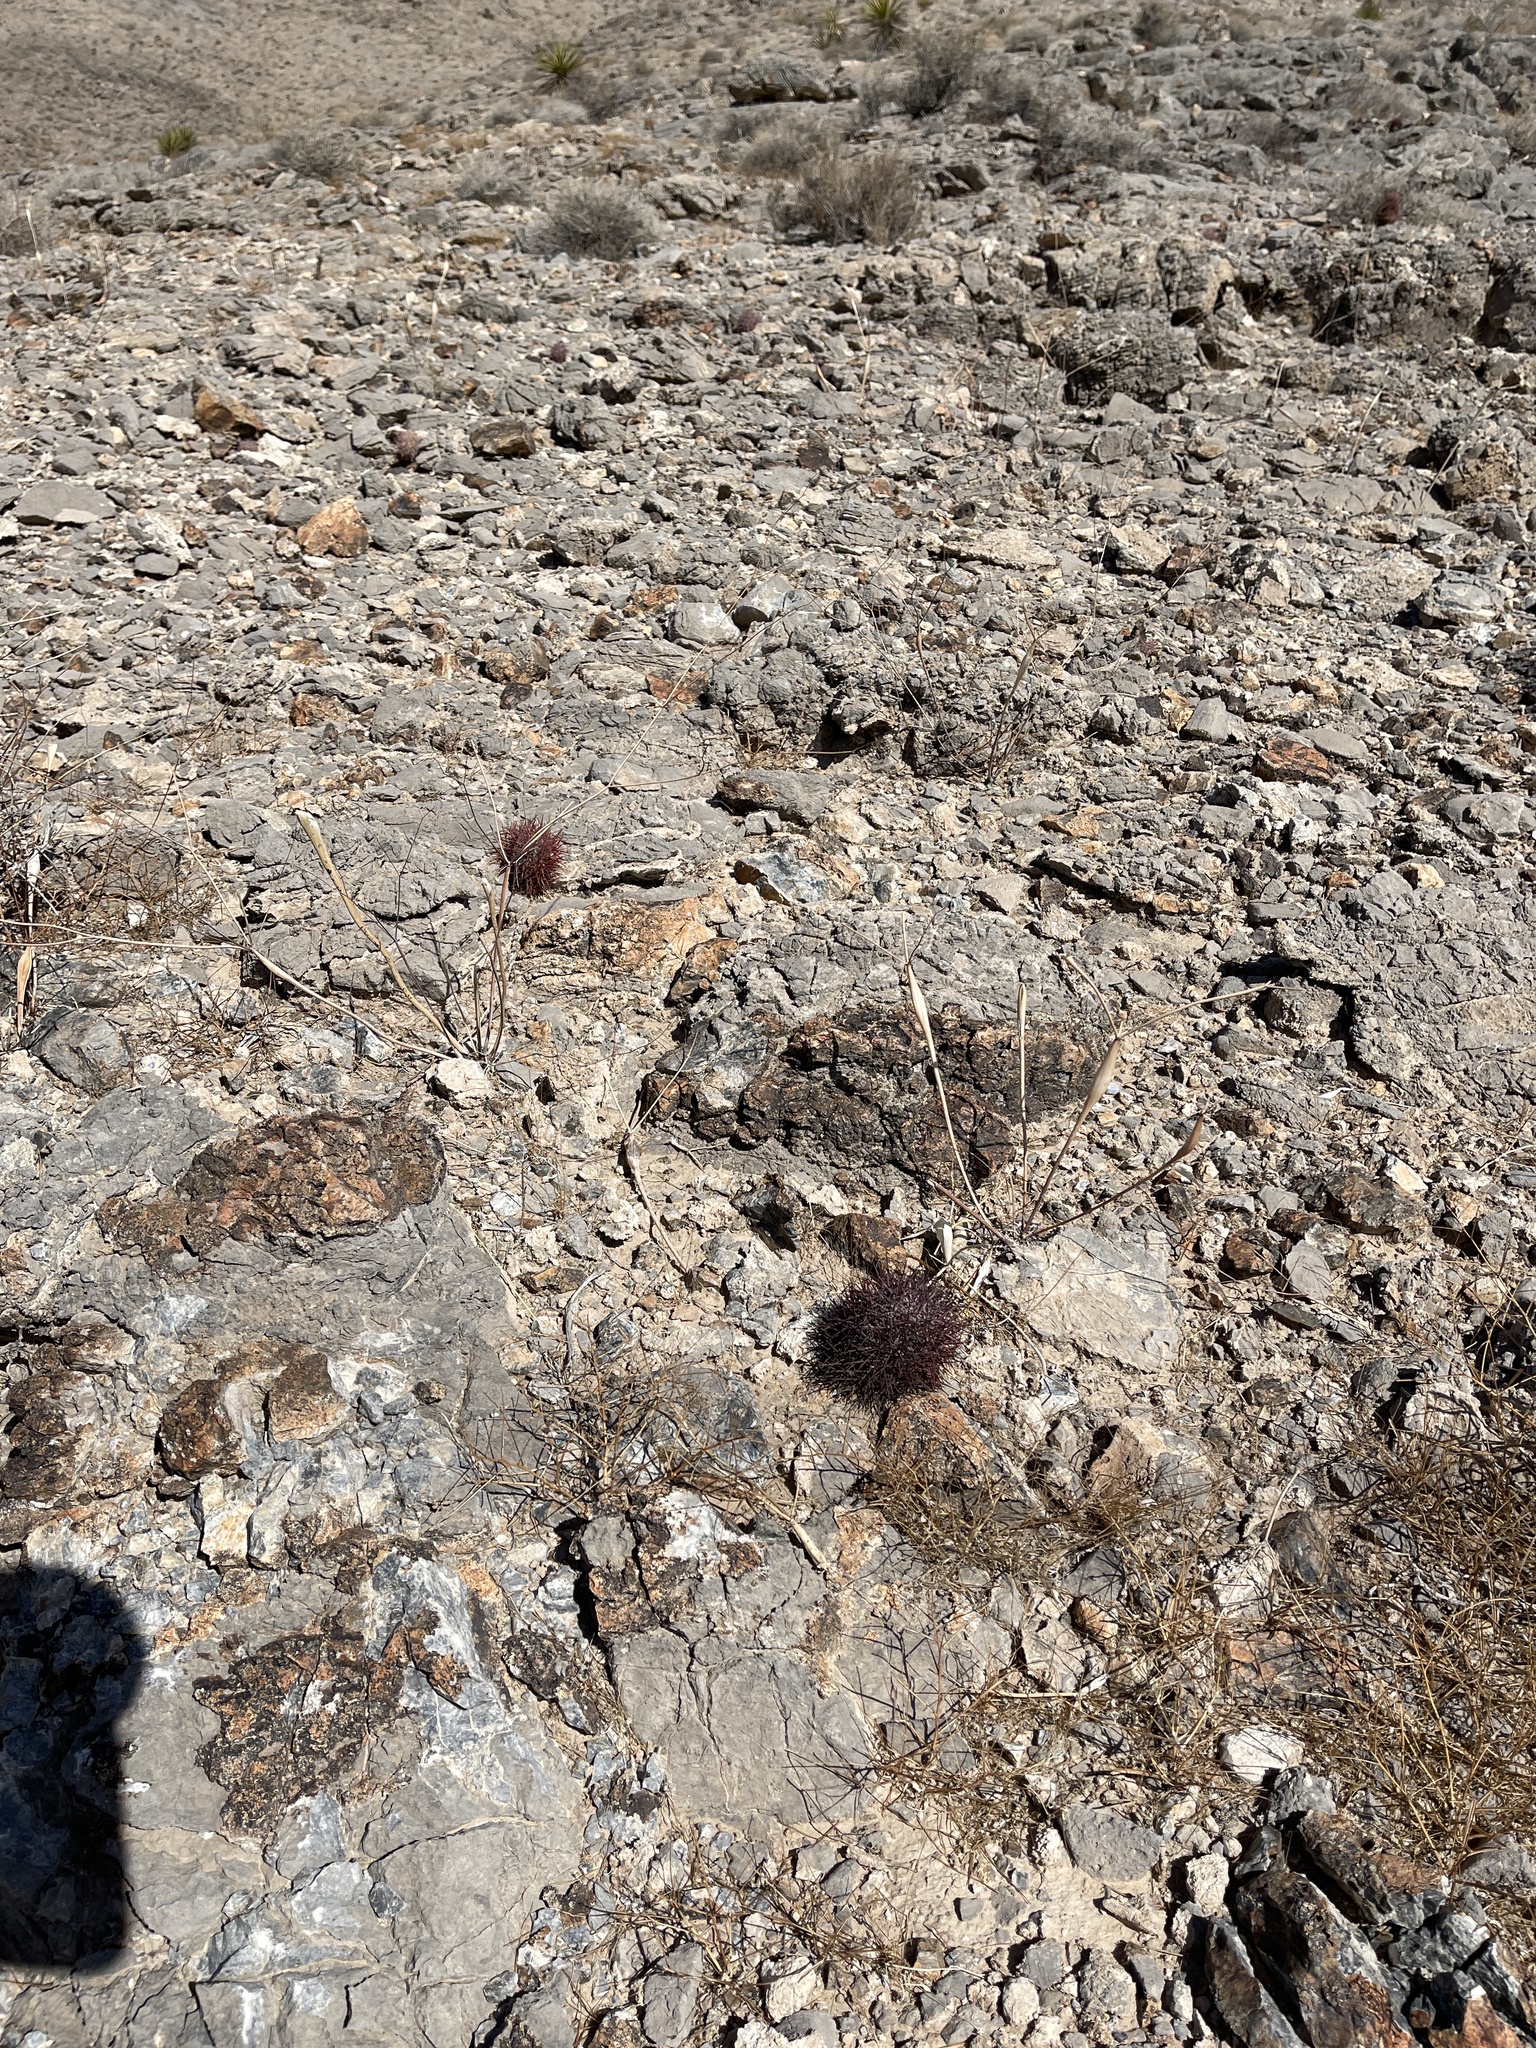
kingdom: Plantae
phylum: Tracheophyta
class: Magnoliopsida
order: Caryophyllales
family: Cactaceae
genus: Sclerocactus
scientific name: Sclerocactus johnsonii
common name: Eight-spine fishhook cactus
